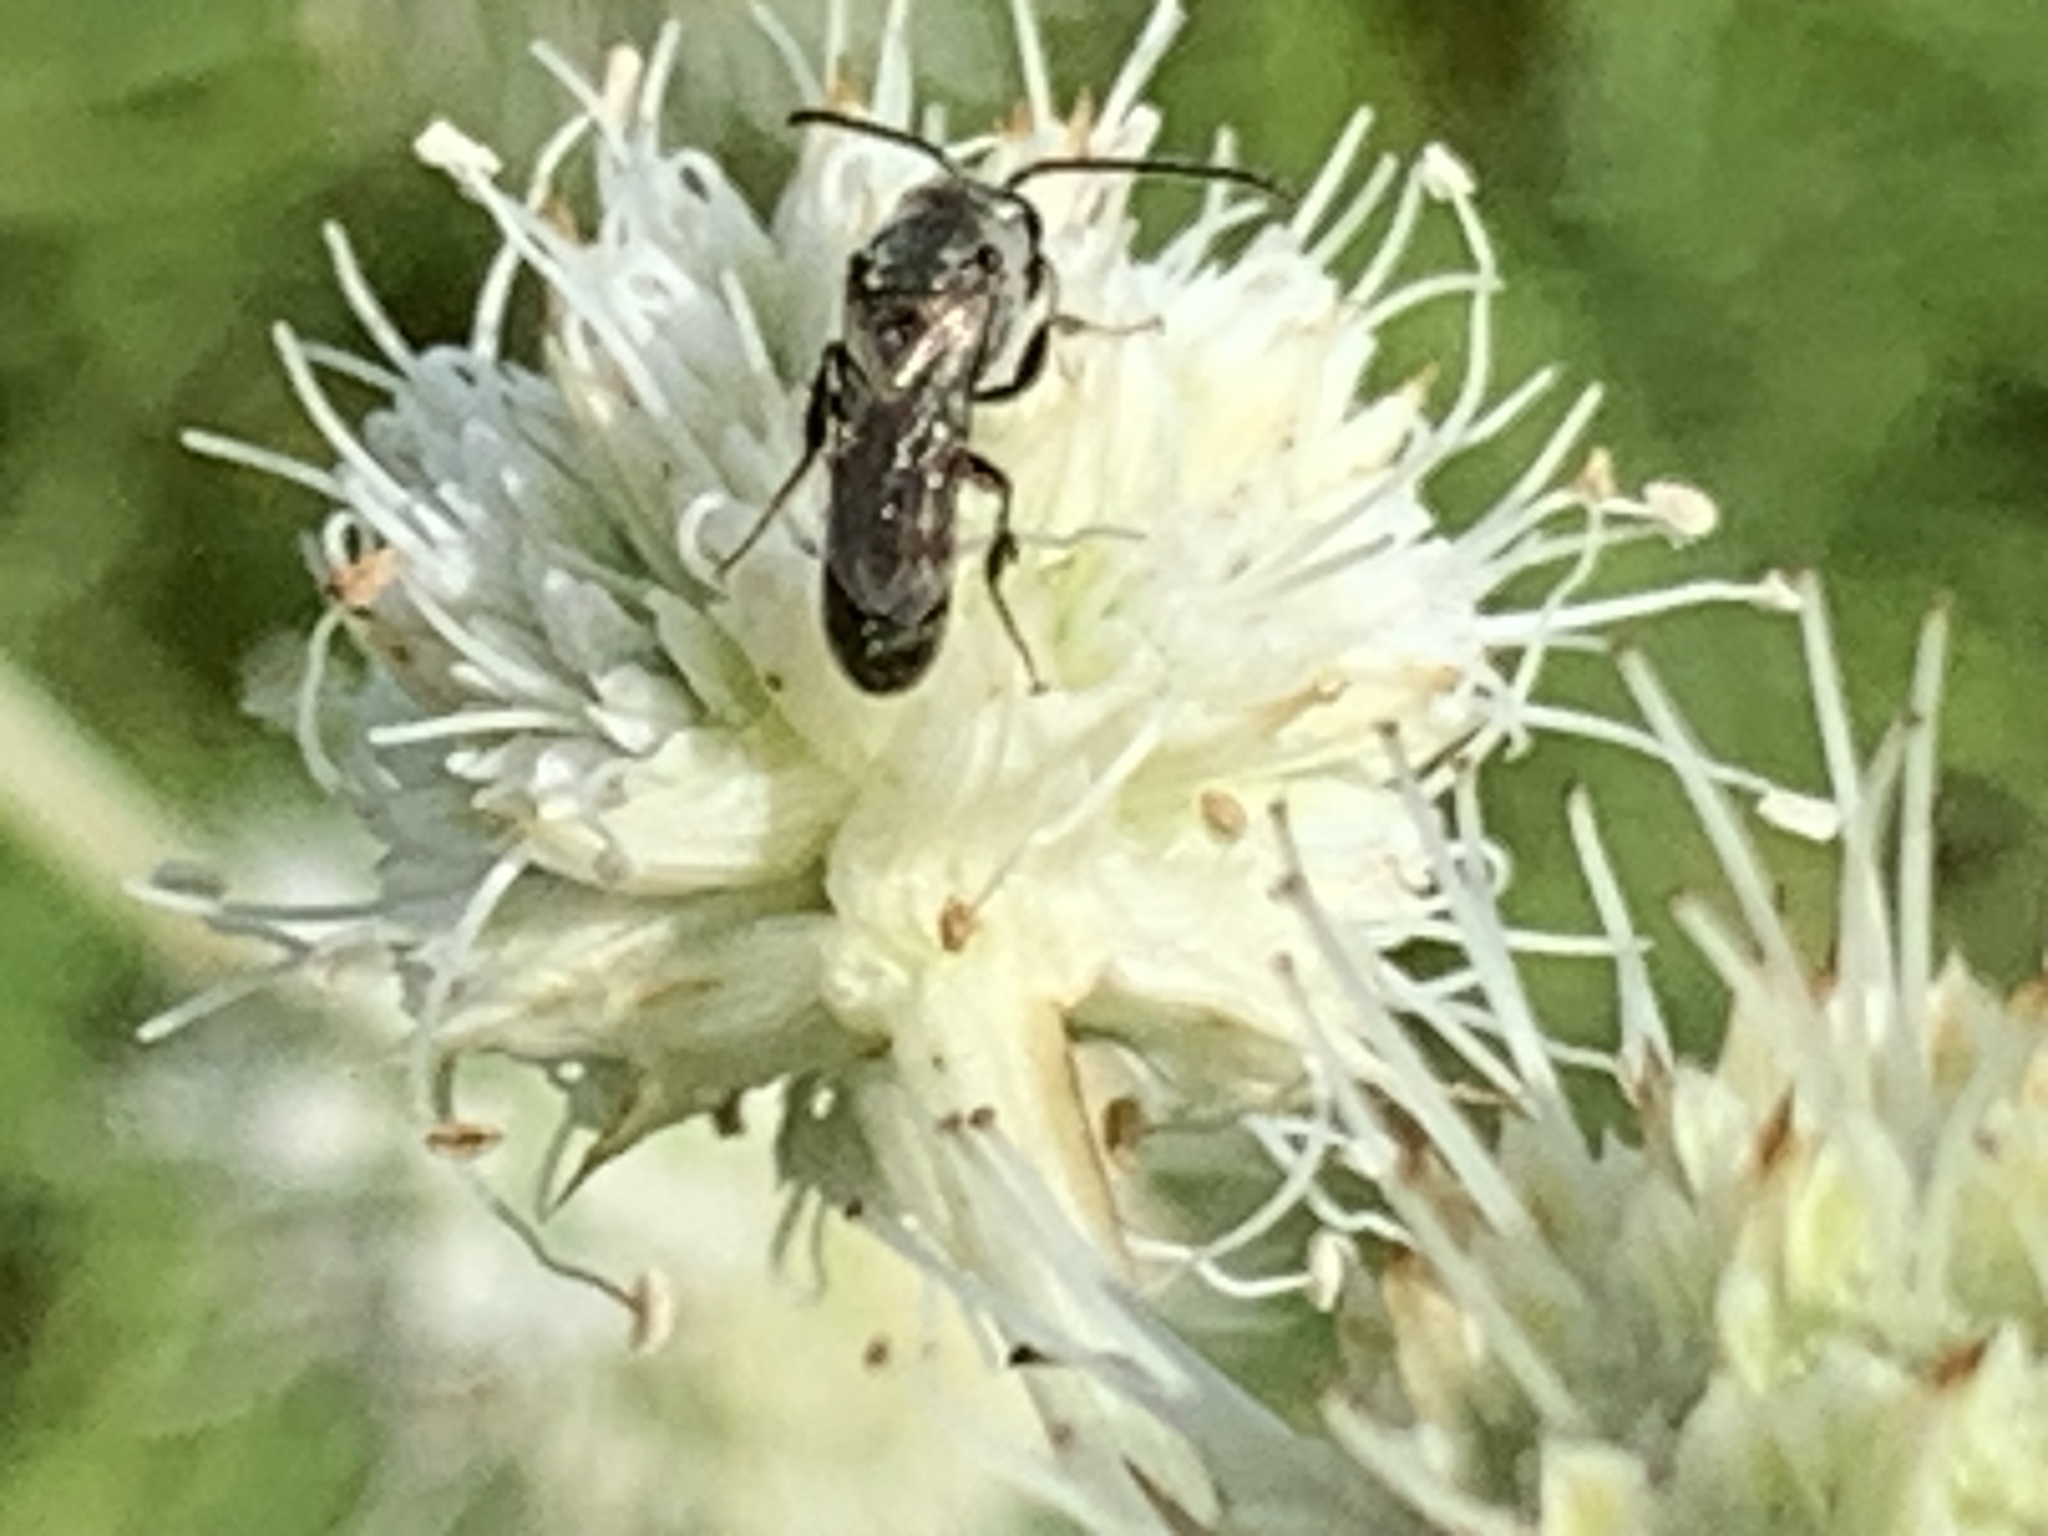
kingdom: Animalia
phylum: Arthropoda
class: Insecta
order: Hymenoptera
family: Halictidae
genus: Dialictus
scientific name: Dialictus
